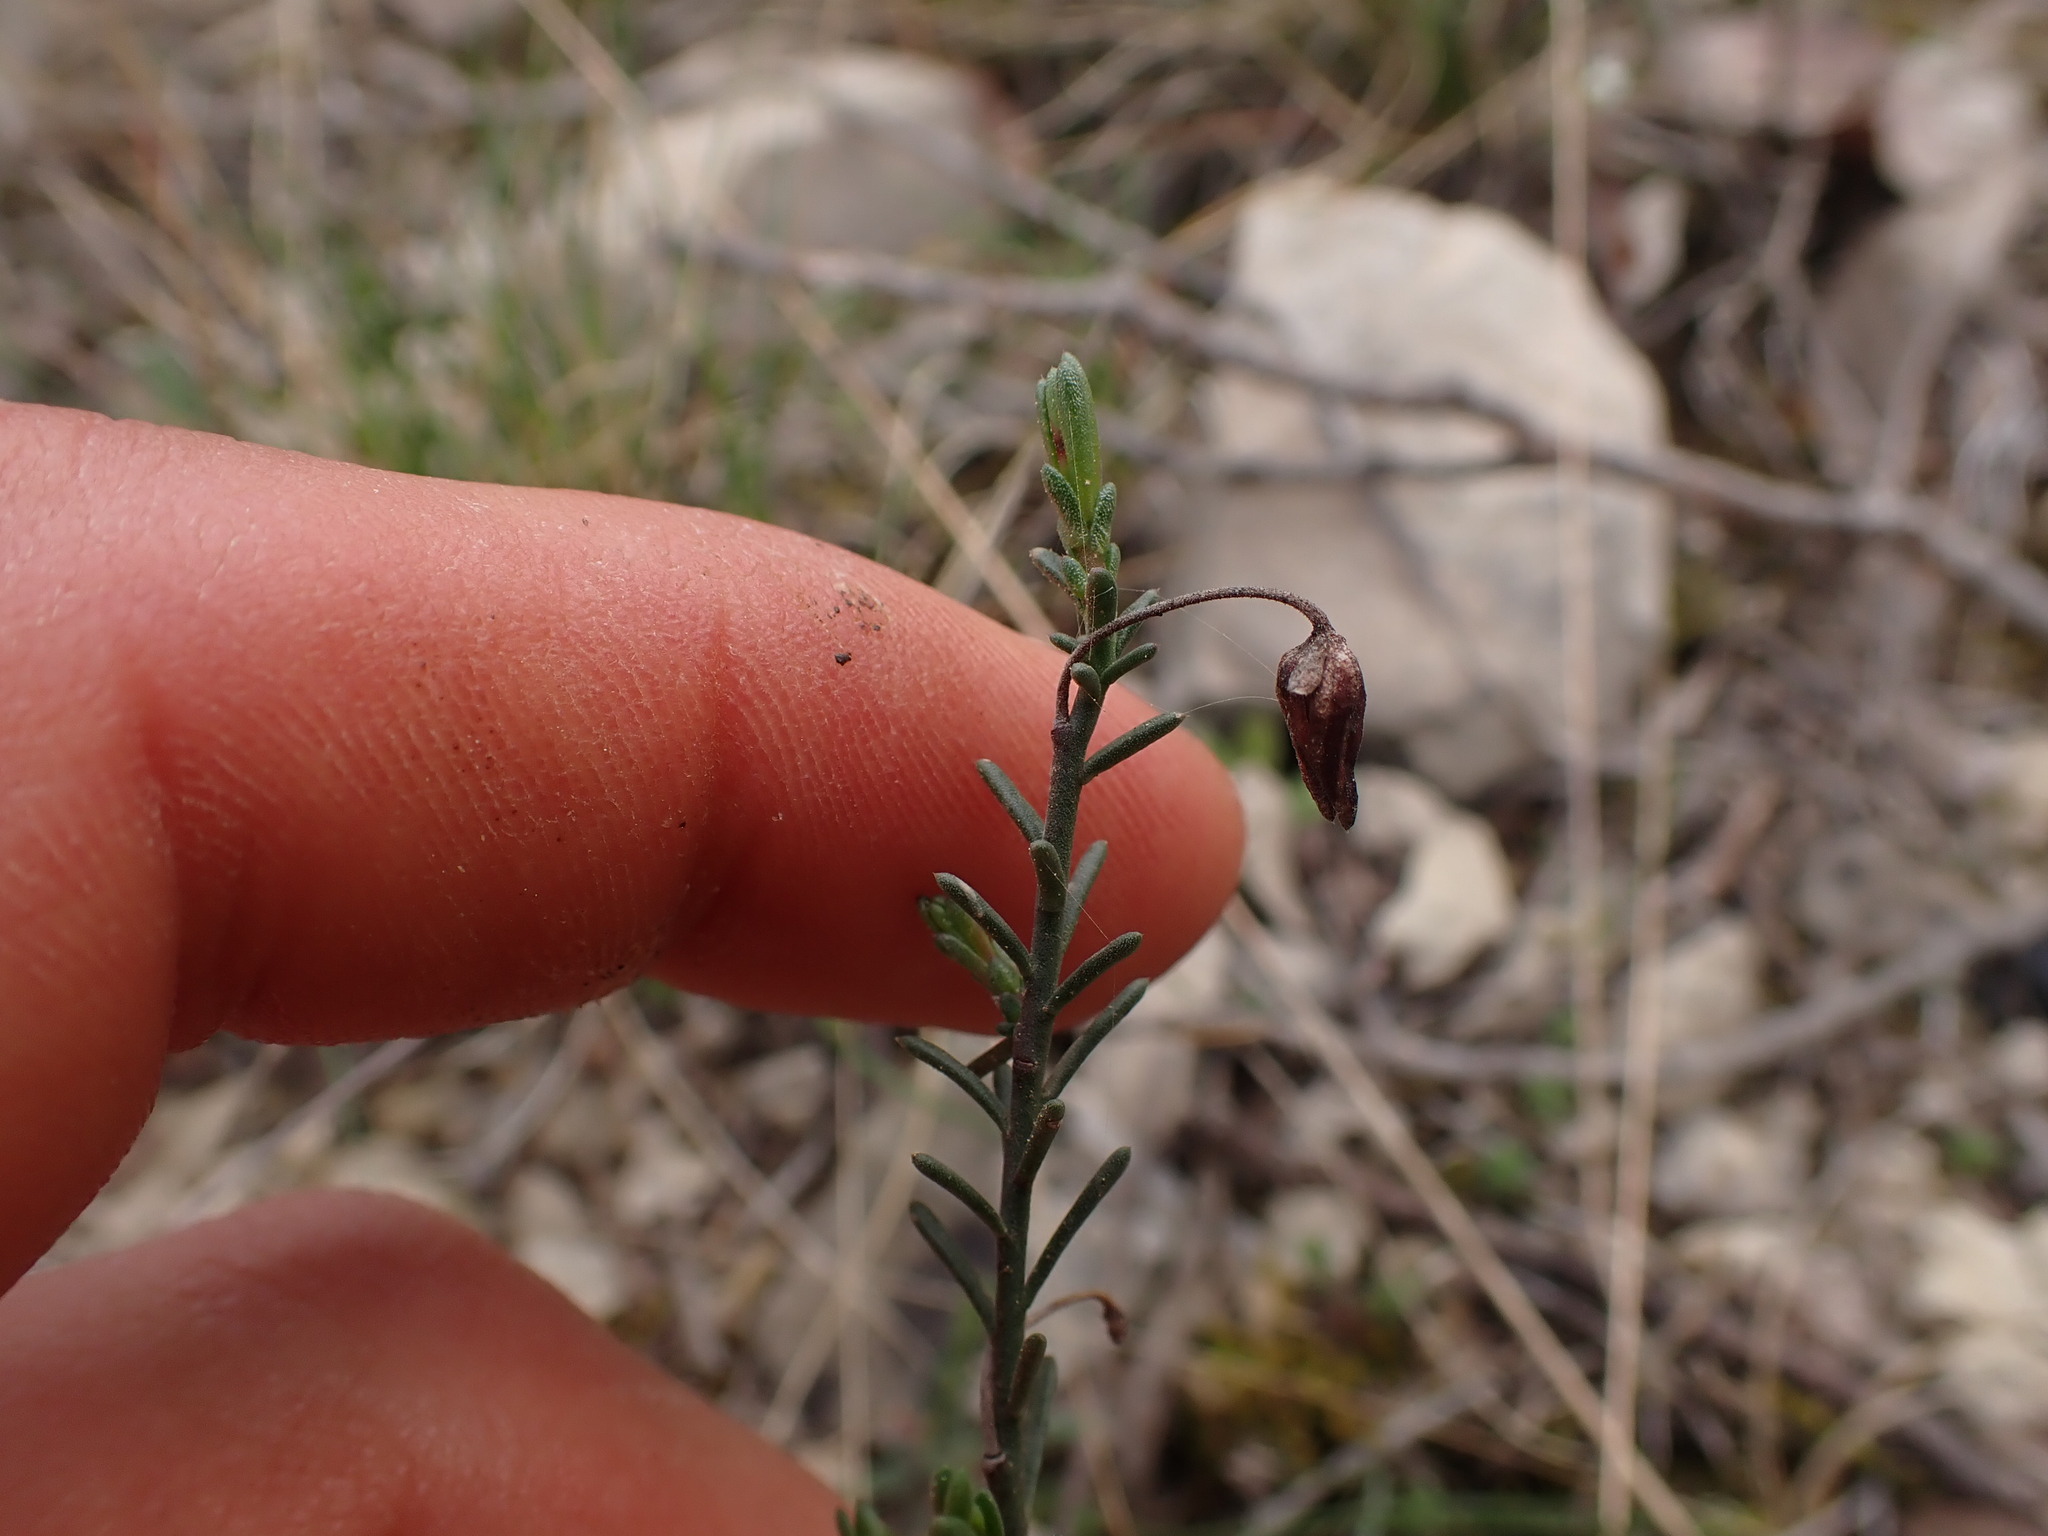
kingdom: Plantae
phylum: Tracheophyta
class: Magnoliopsida
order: Malvales
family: Cistaceae
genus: Fumana
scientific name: Fumana ericifolia
